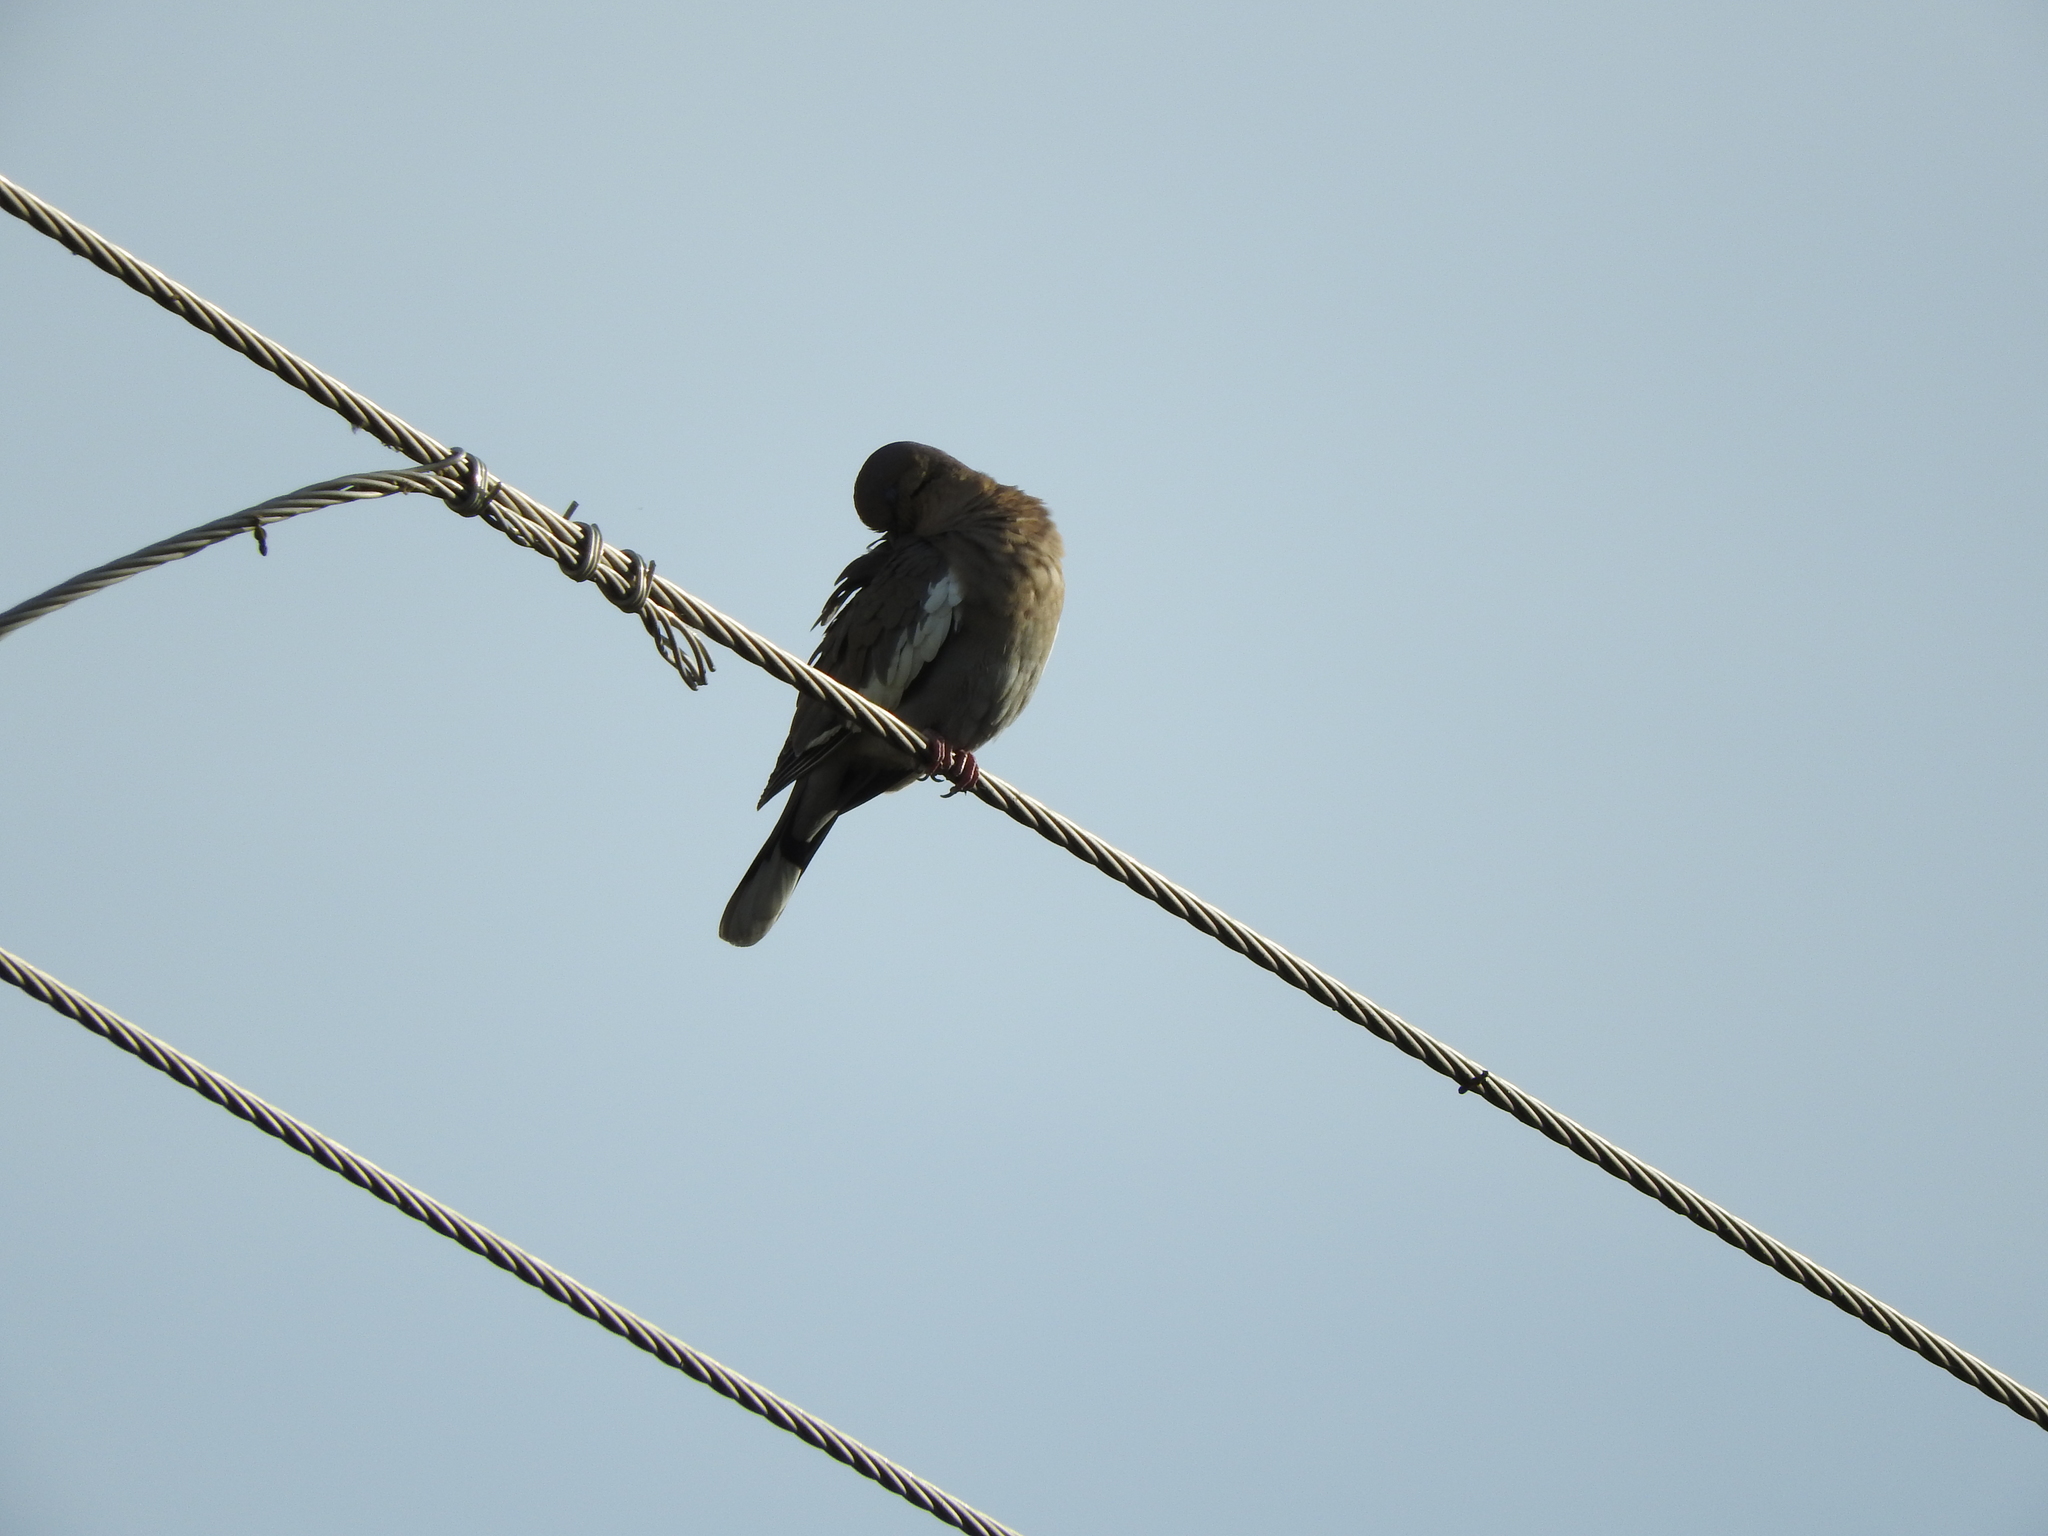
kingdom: Animalia
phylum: Chordata
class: Aves
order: Columbiformes
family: Columbidae
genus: Zenaida
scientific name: Zenaida asiatica
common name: White-winged dove
